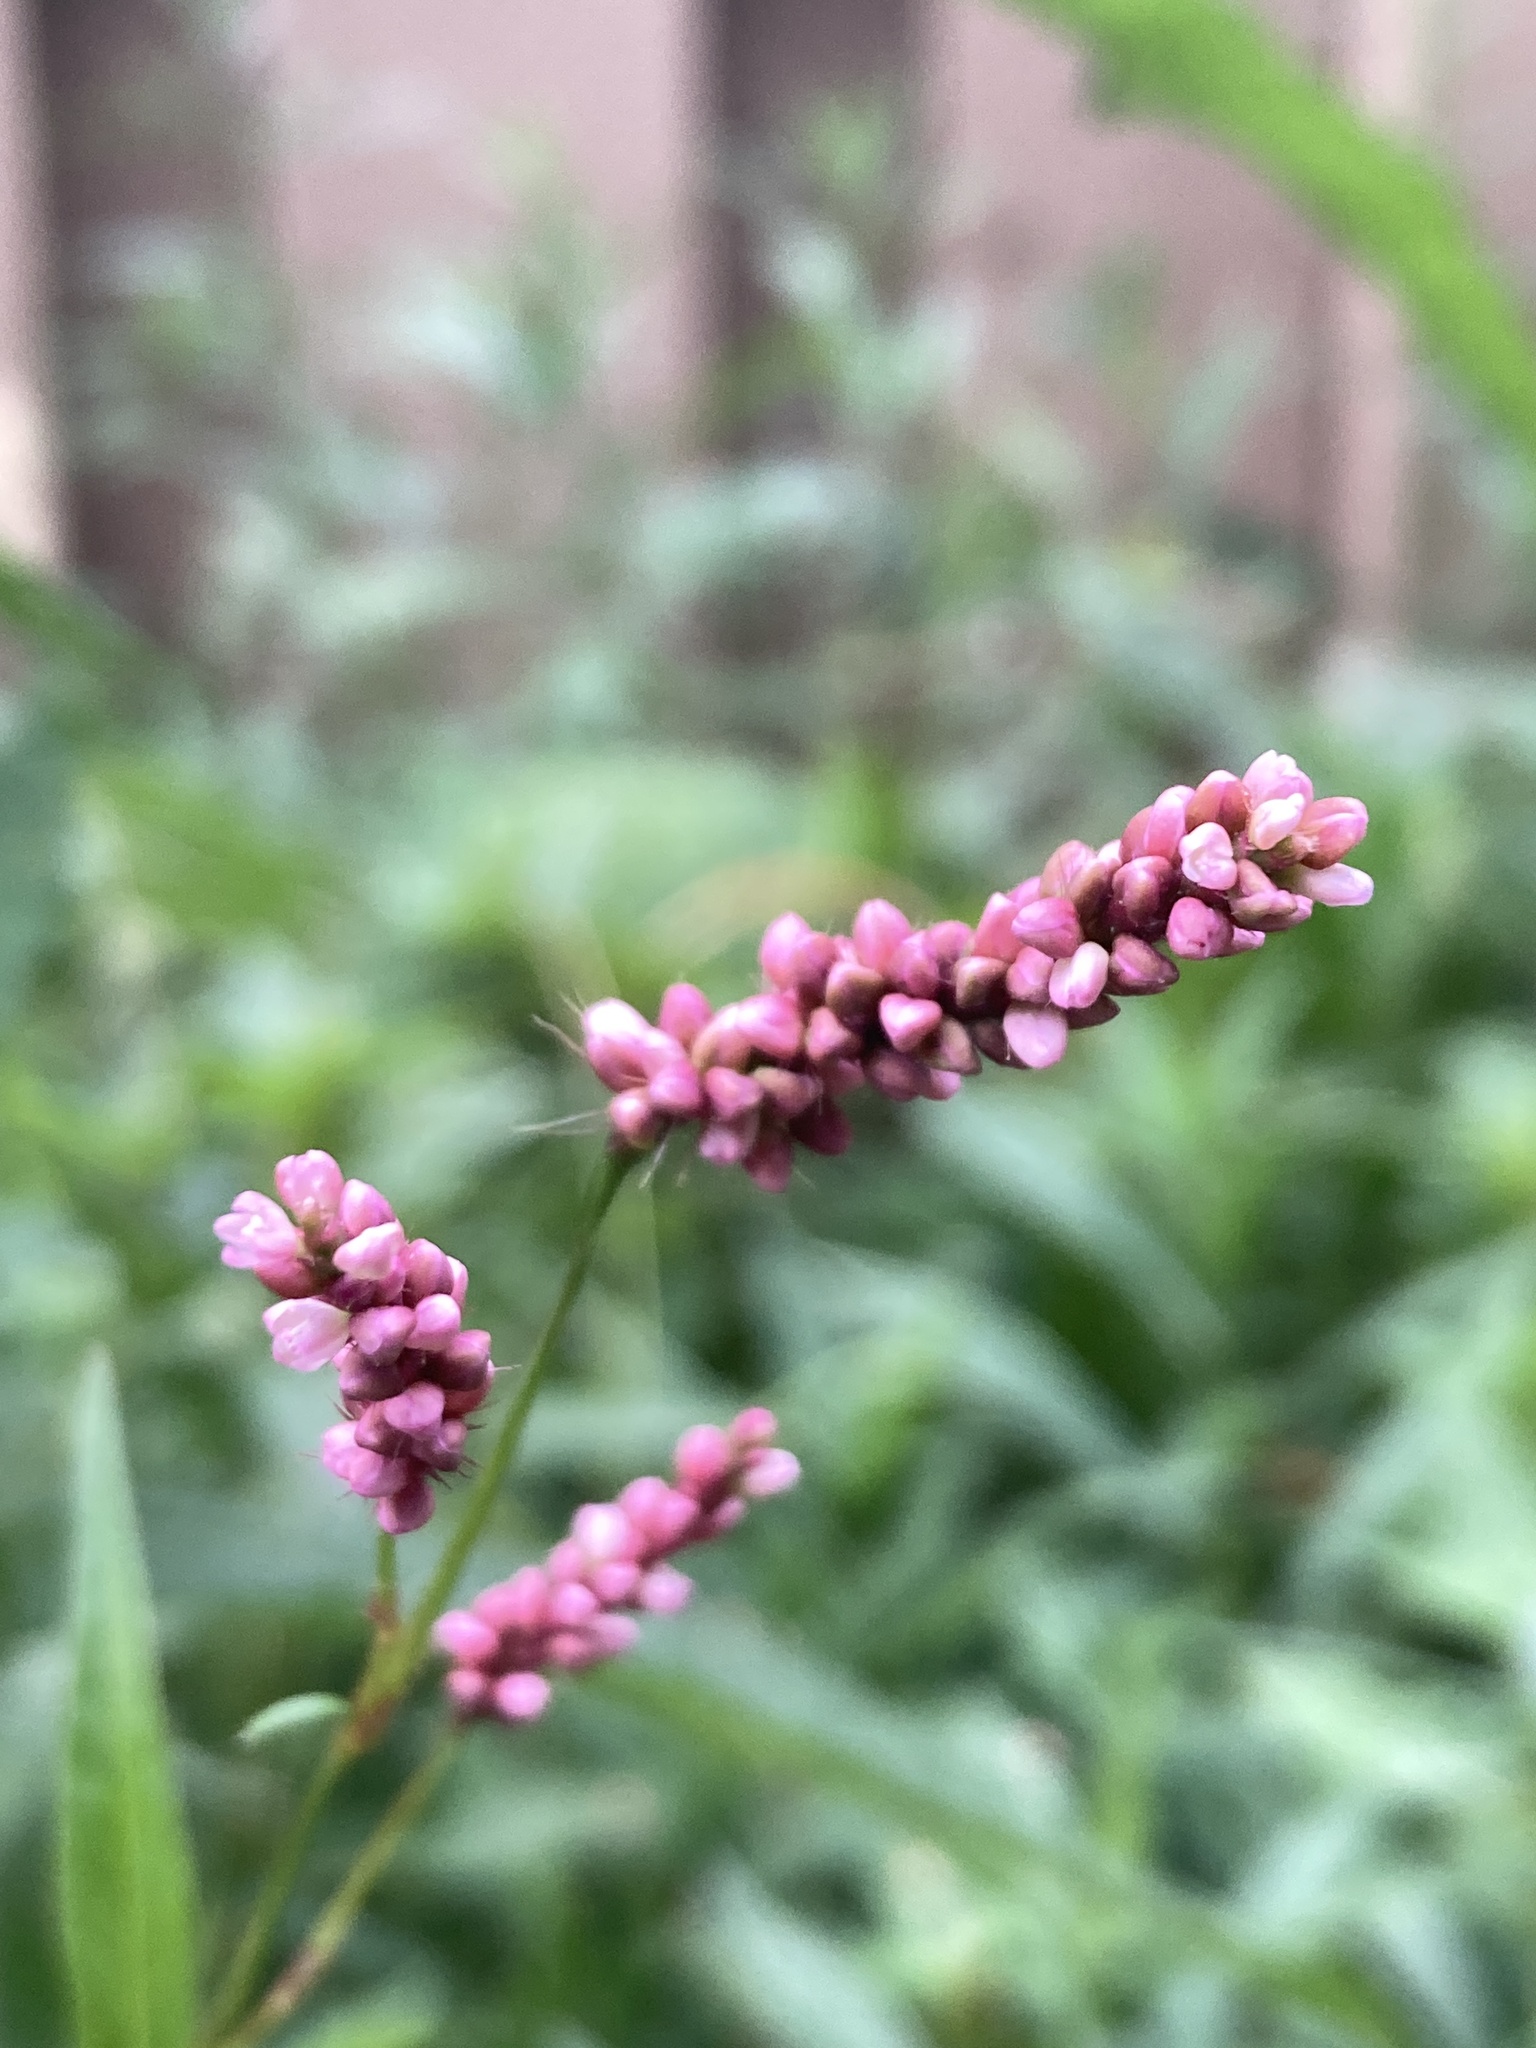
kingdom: Plantae
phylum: Tracheophyta
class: Magnoliopsida
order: Caryophyllales
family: Polygonaceae
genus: Persicaria
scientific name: Persicaria longiseta
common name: Bristly lady's-thumb
